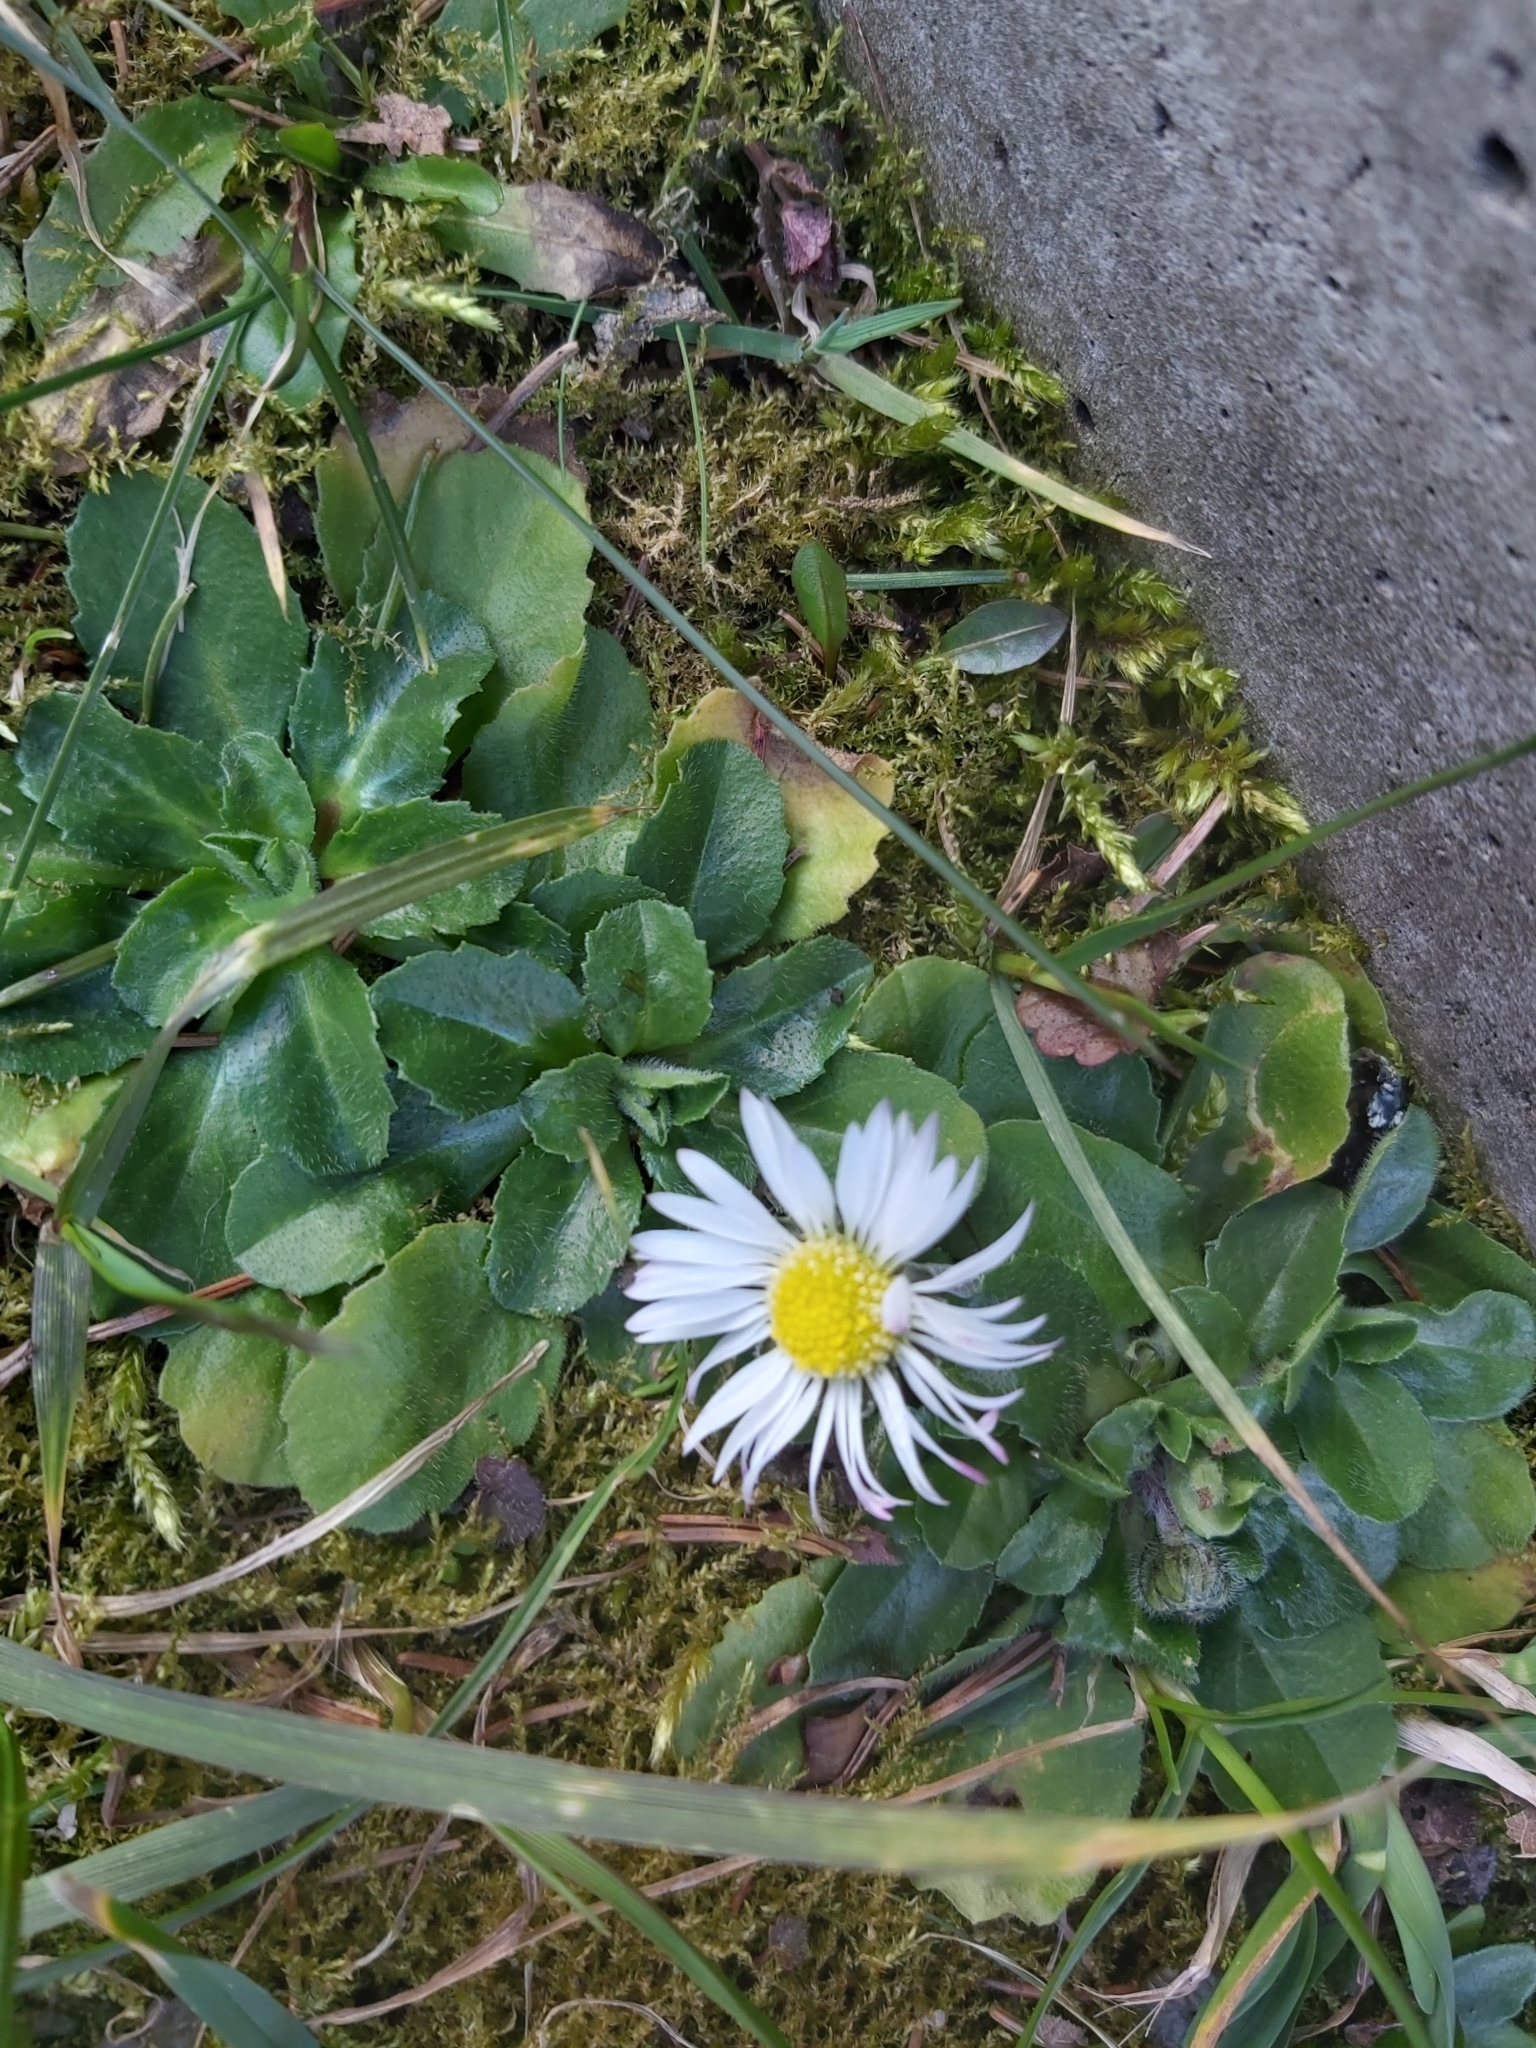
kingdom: Plantae
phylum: Tracheophyta
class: Magnoliopsida
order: Asterales
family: Asteraceae
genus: Bellis
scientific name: Bellis perennis
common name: Lawndaisy
